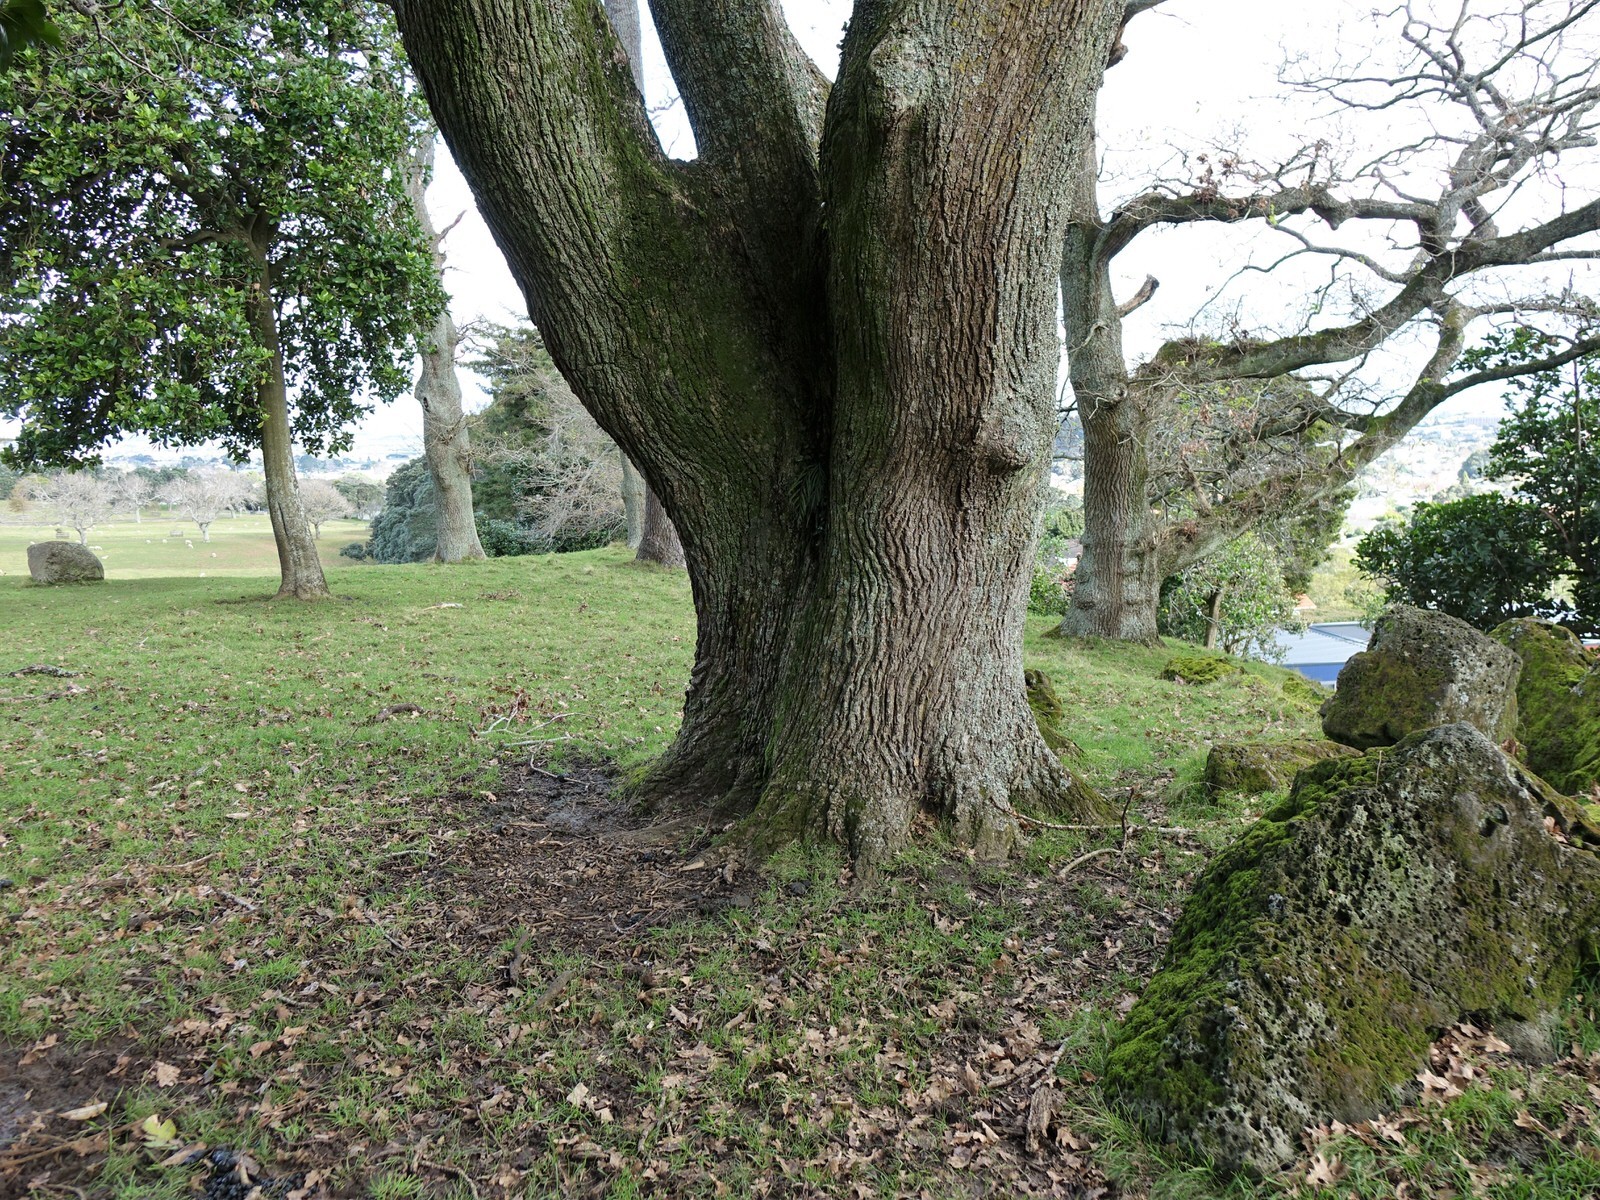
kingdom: Plantae
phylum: Tracheophyta
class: Polypodiopsida
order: Polypodiales
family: Aspleniaceae
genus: Asplenium
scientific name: Asplenium flaccidum
